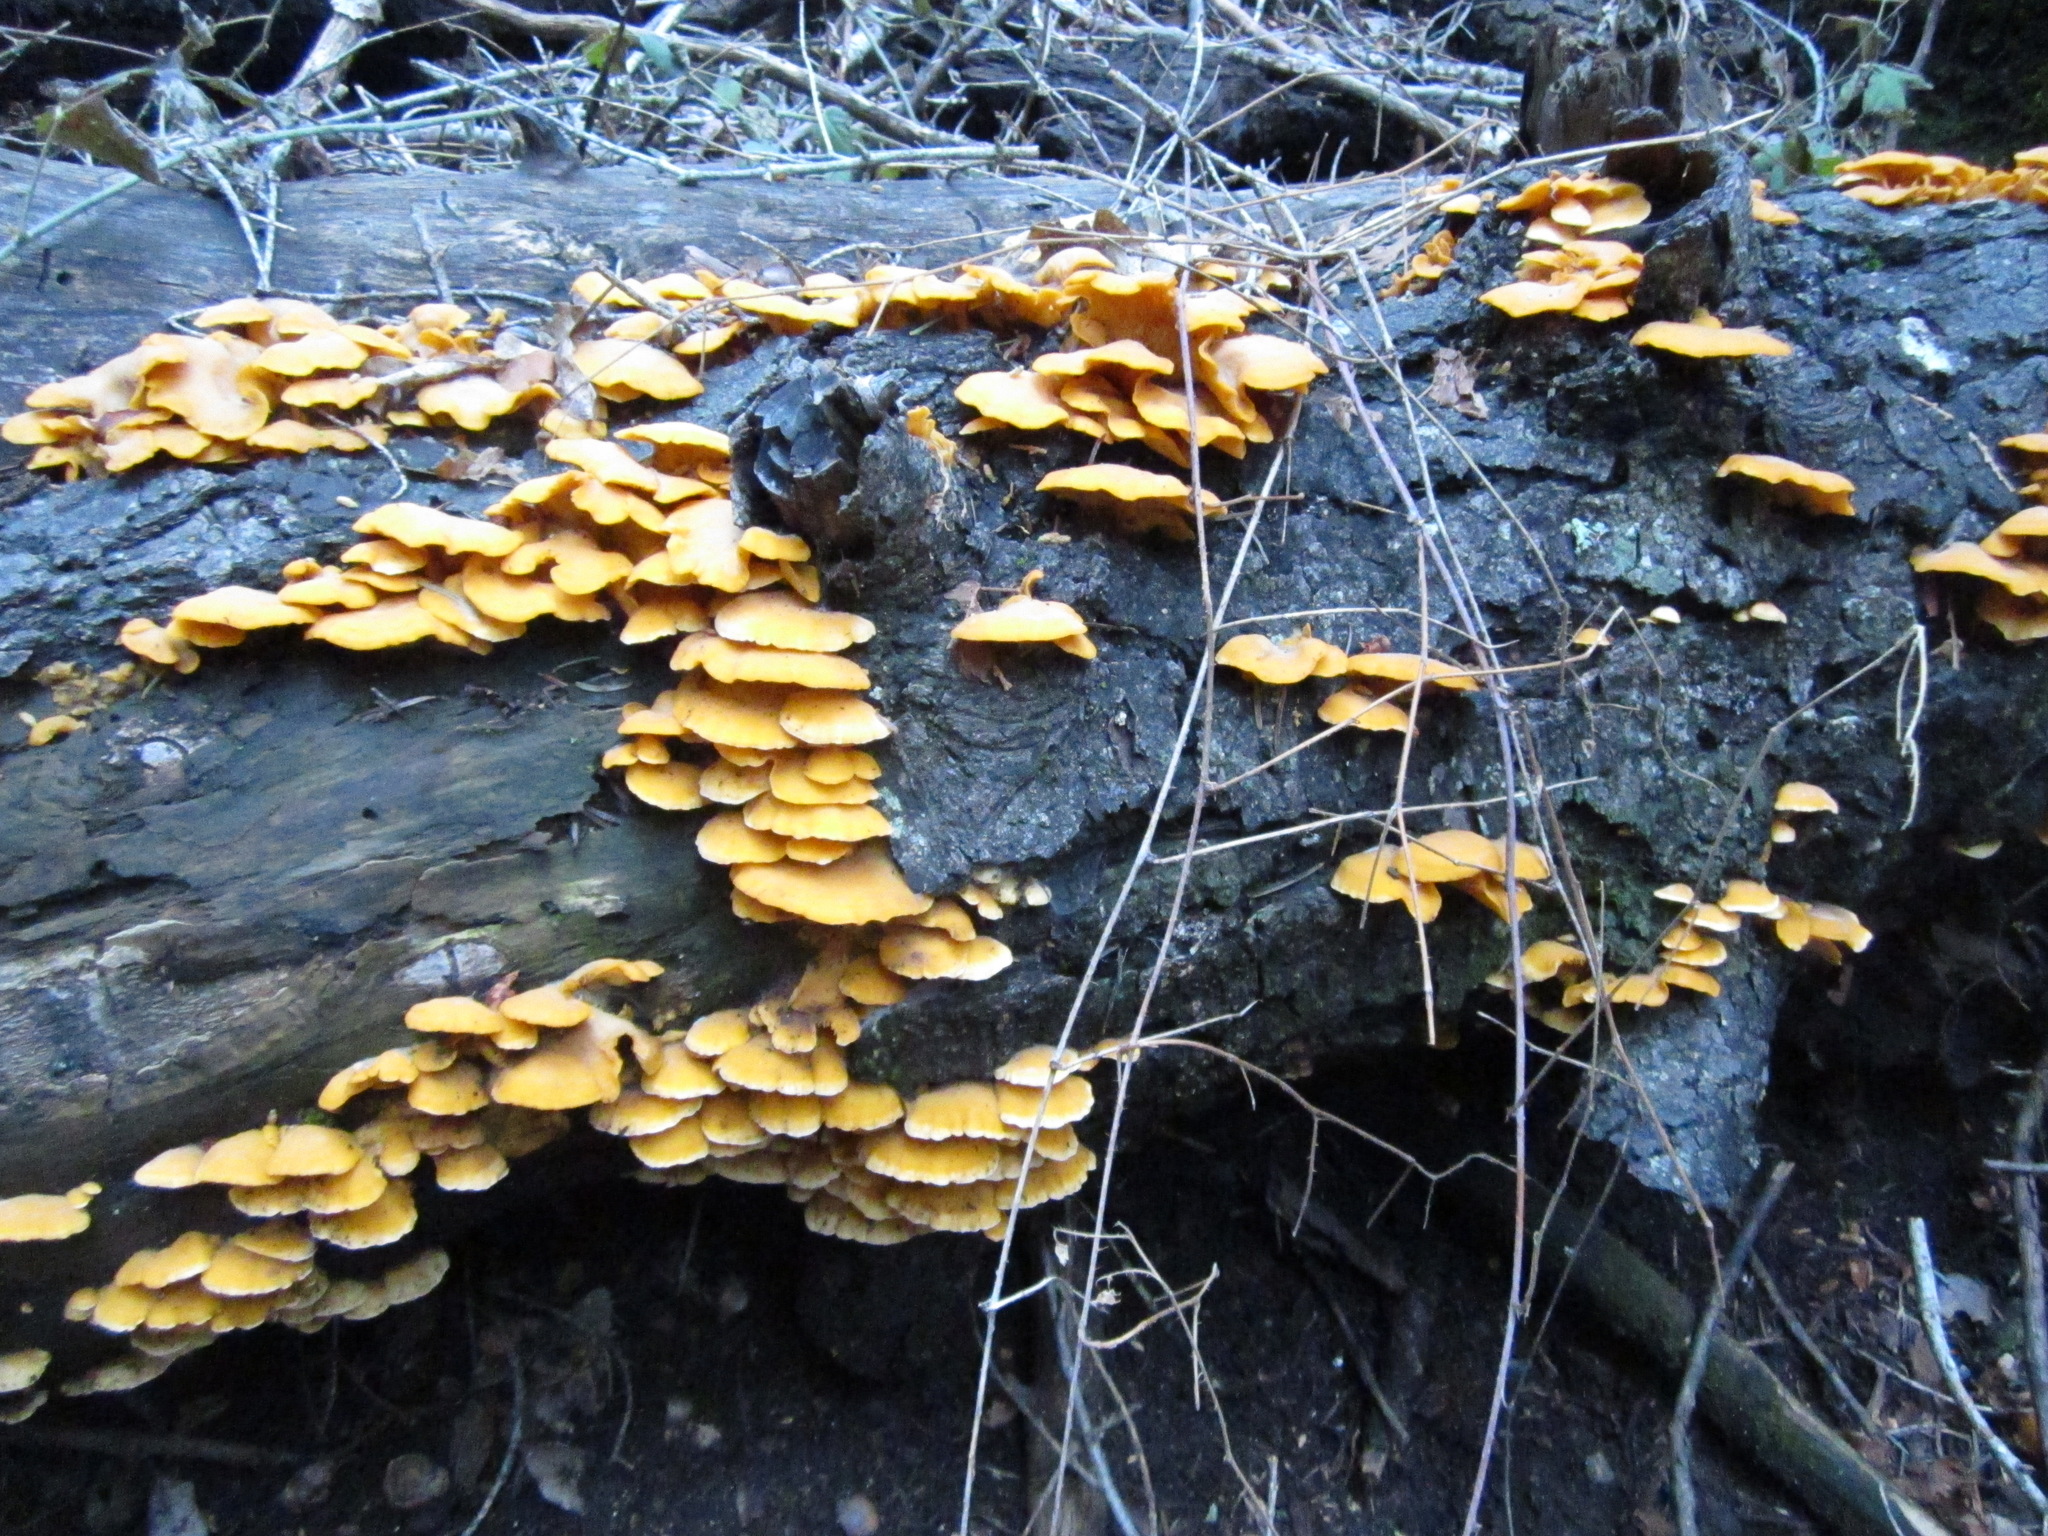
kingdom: Fungi
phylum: Basidiomycota
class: Agaricomycetes
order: Agaricales
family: Phyllotopsidaceae
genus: Phyllotopsis
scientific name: Phyllotopsis nidulans
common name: Orange mock oyster
